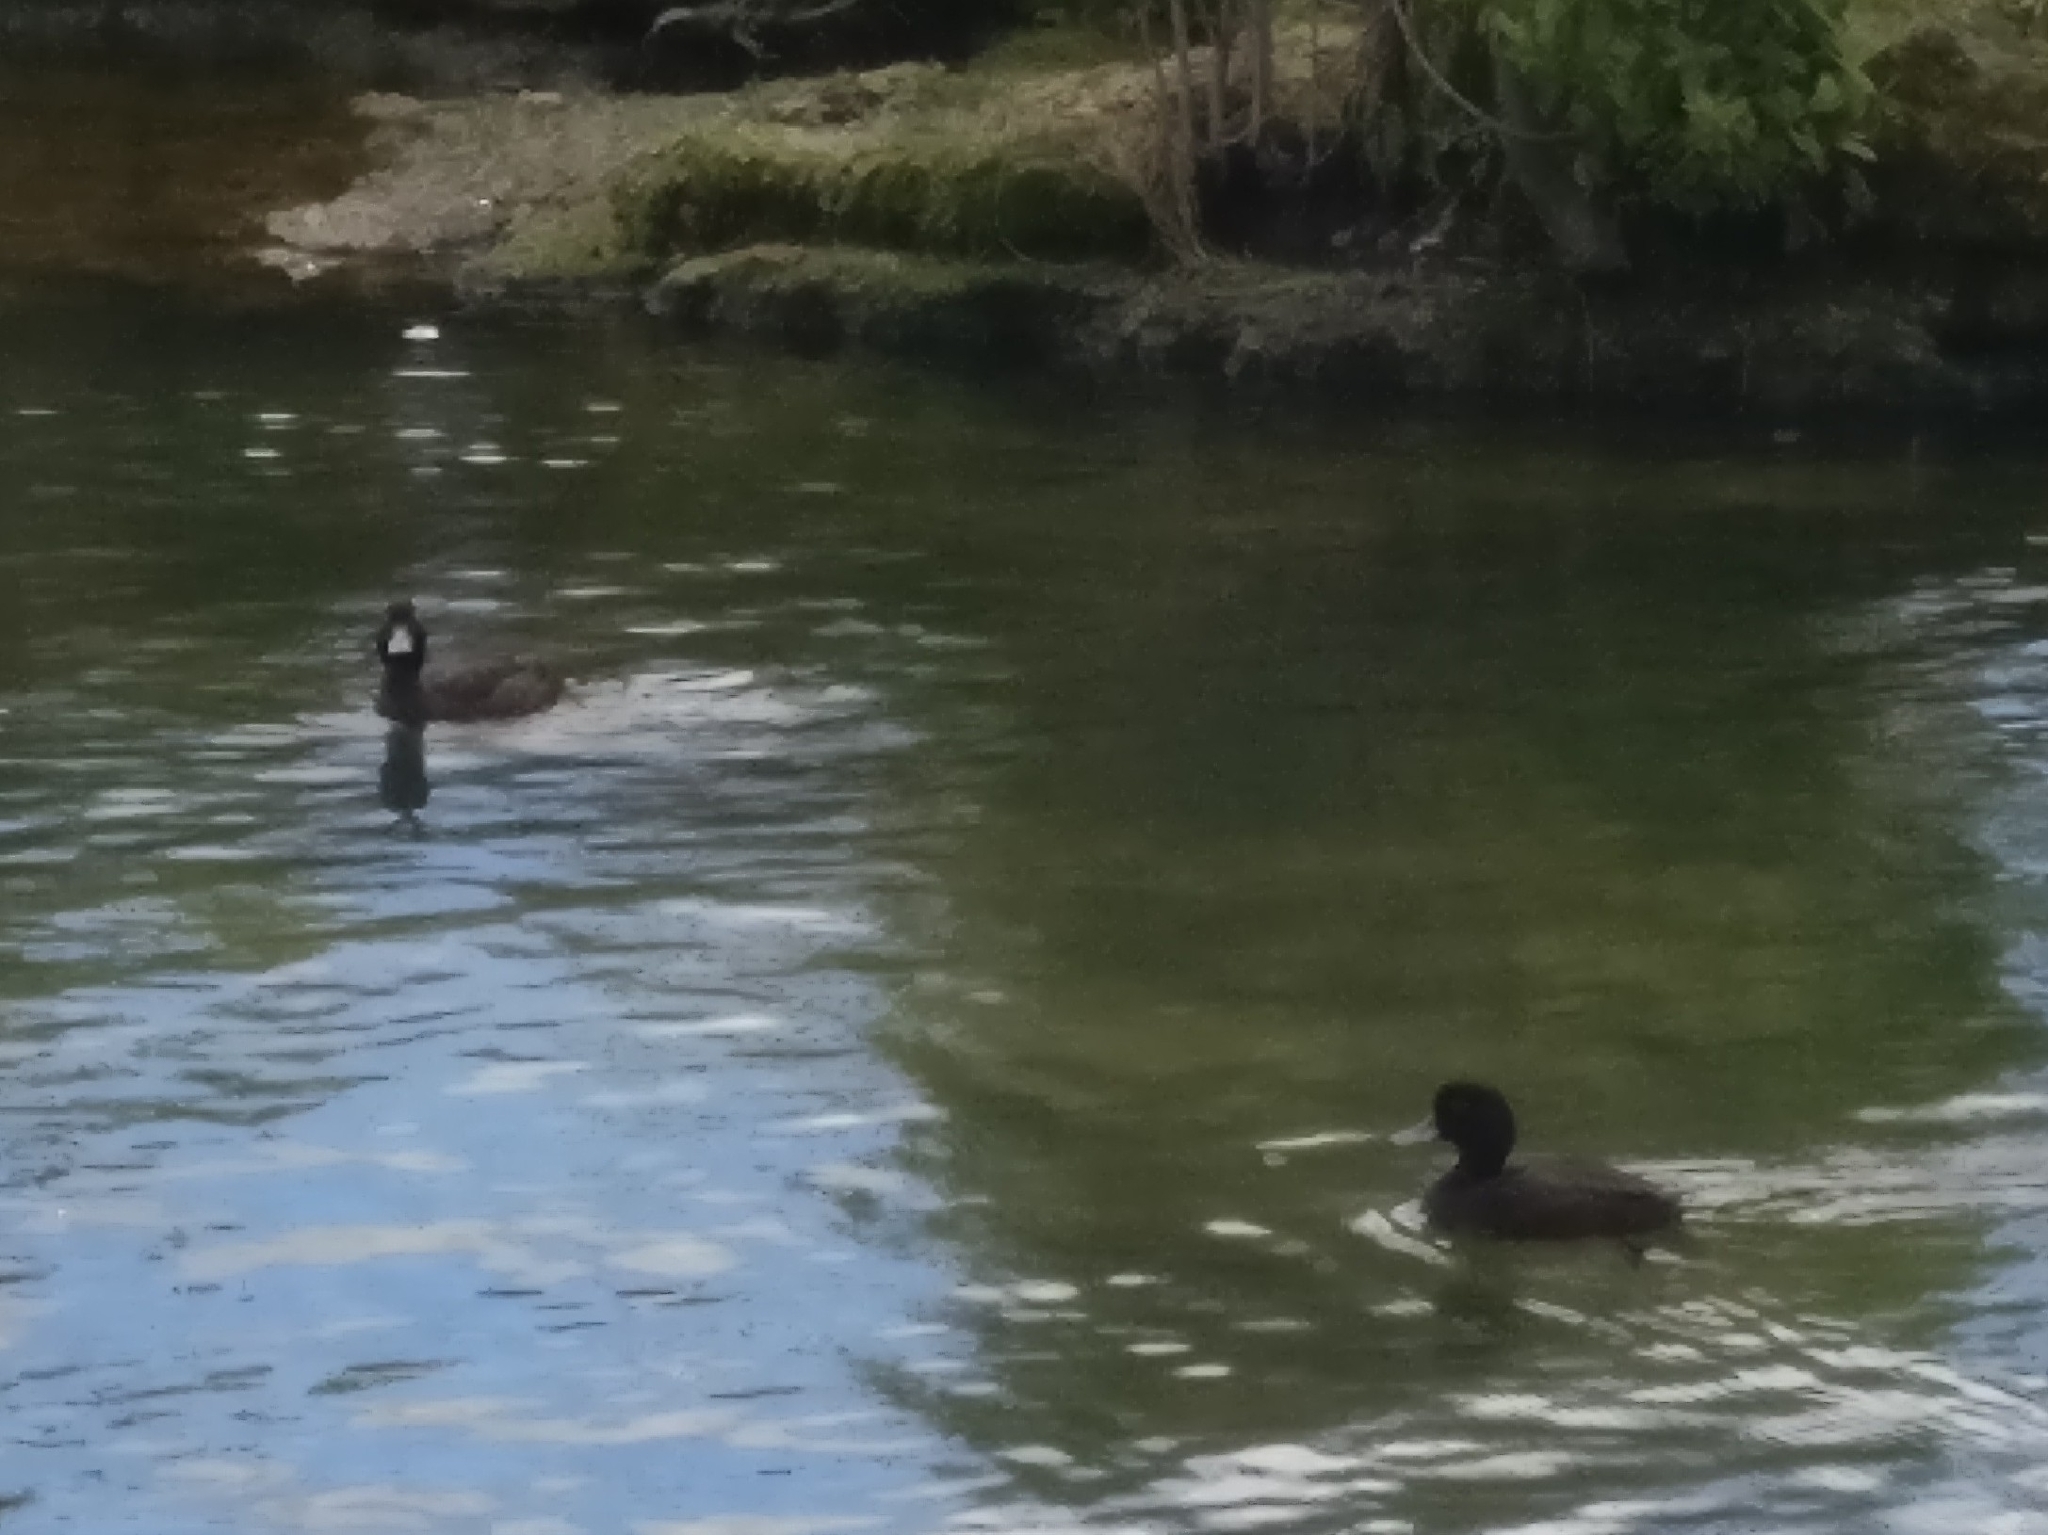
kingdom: Animalia
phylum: Chordata
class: Aves
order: Anseriformes
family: Anatidae
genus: Aythya
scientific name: Aythya novaeseelandiae
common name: New zealand scaup
